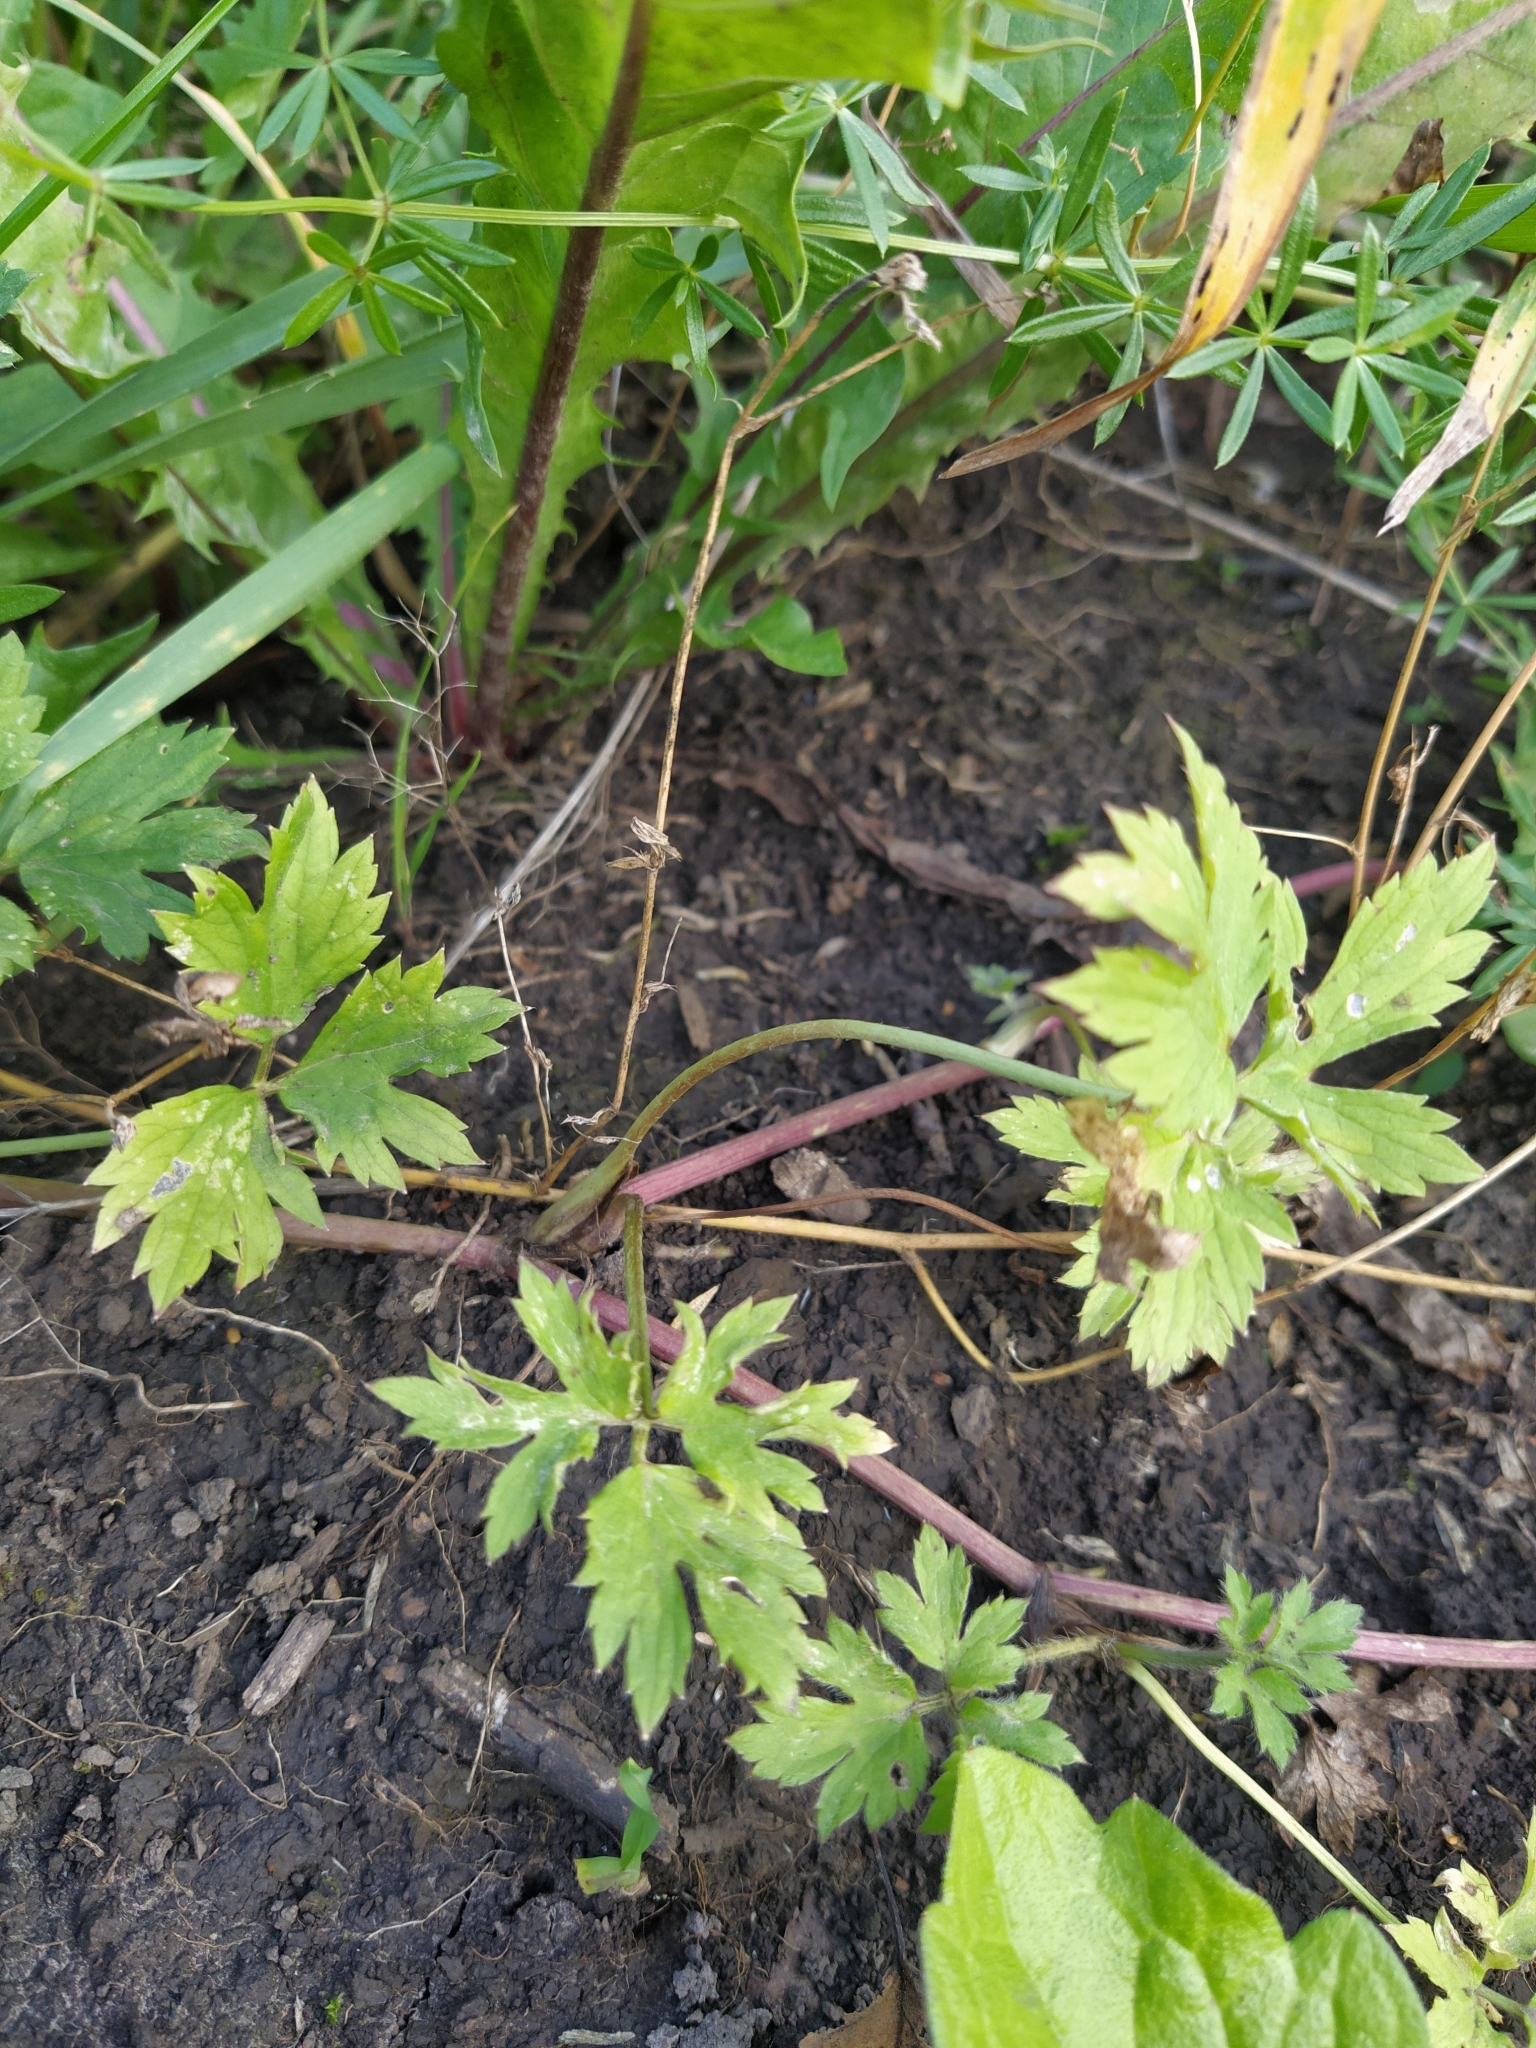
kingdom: Plantae
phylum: Tracheophyta
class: Magnoliopsida
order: Ranunculales
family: Ranunculaceae
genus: Ranunculus
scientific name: Ranunculus repens
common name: Creeping buttercup
